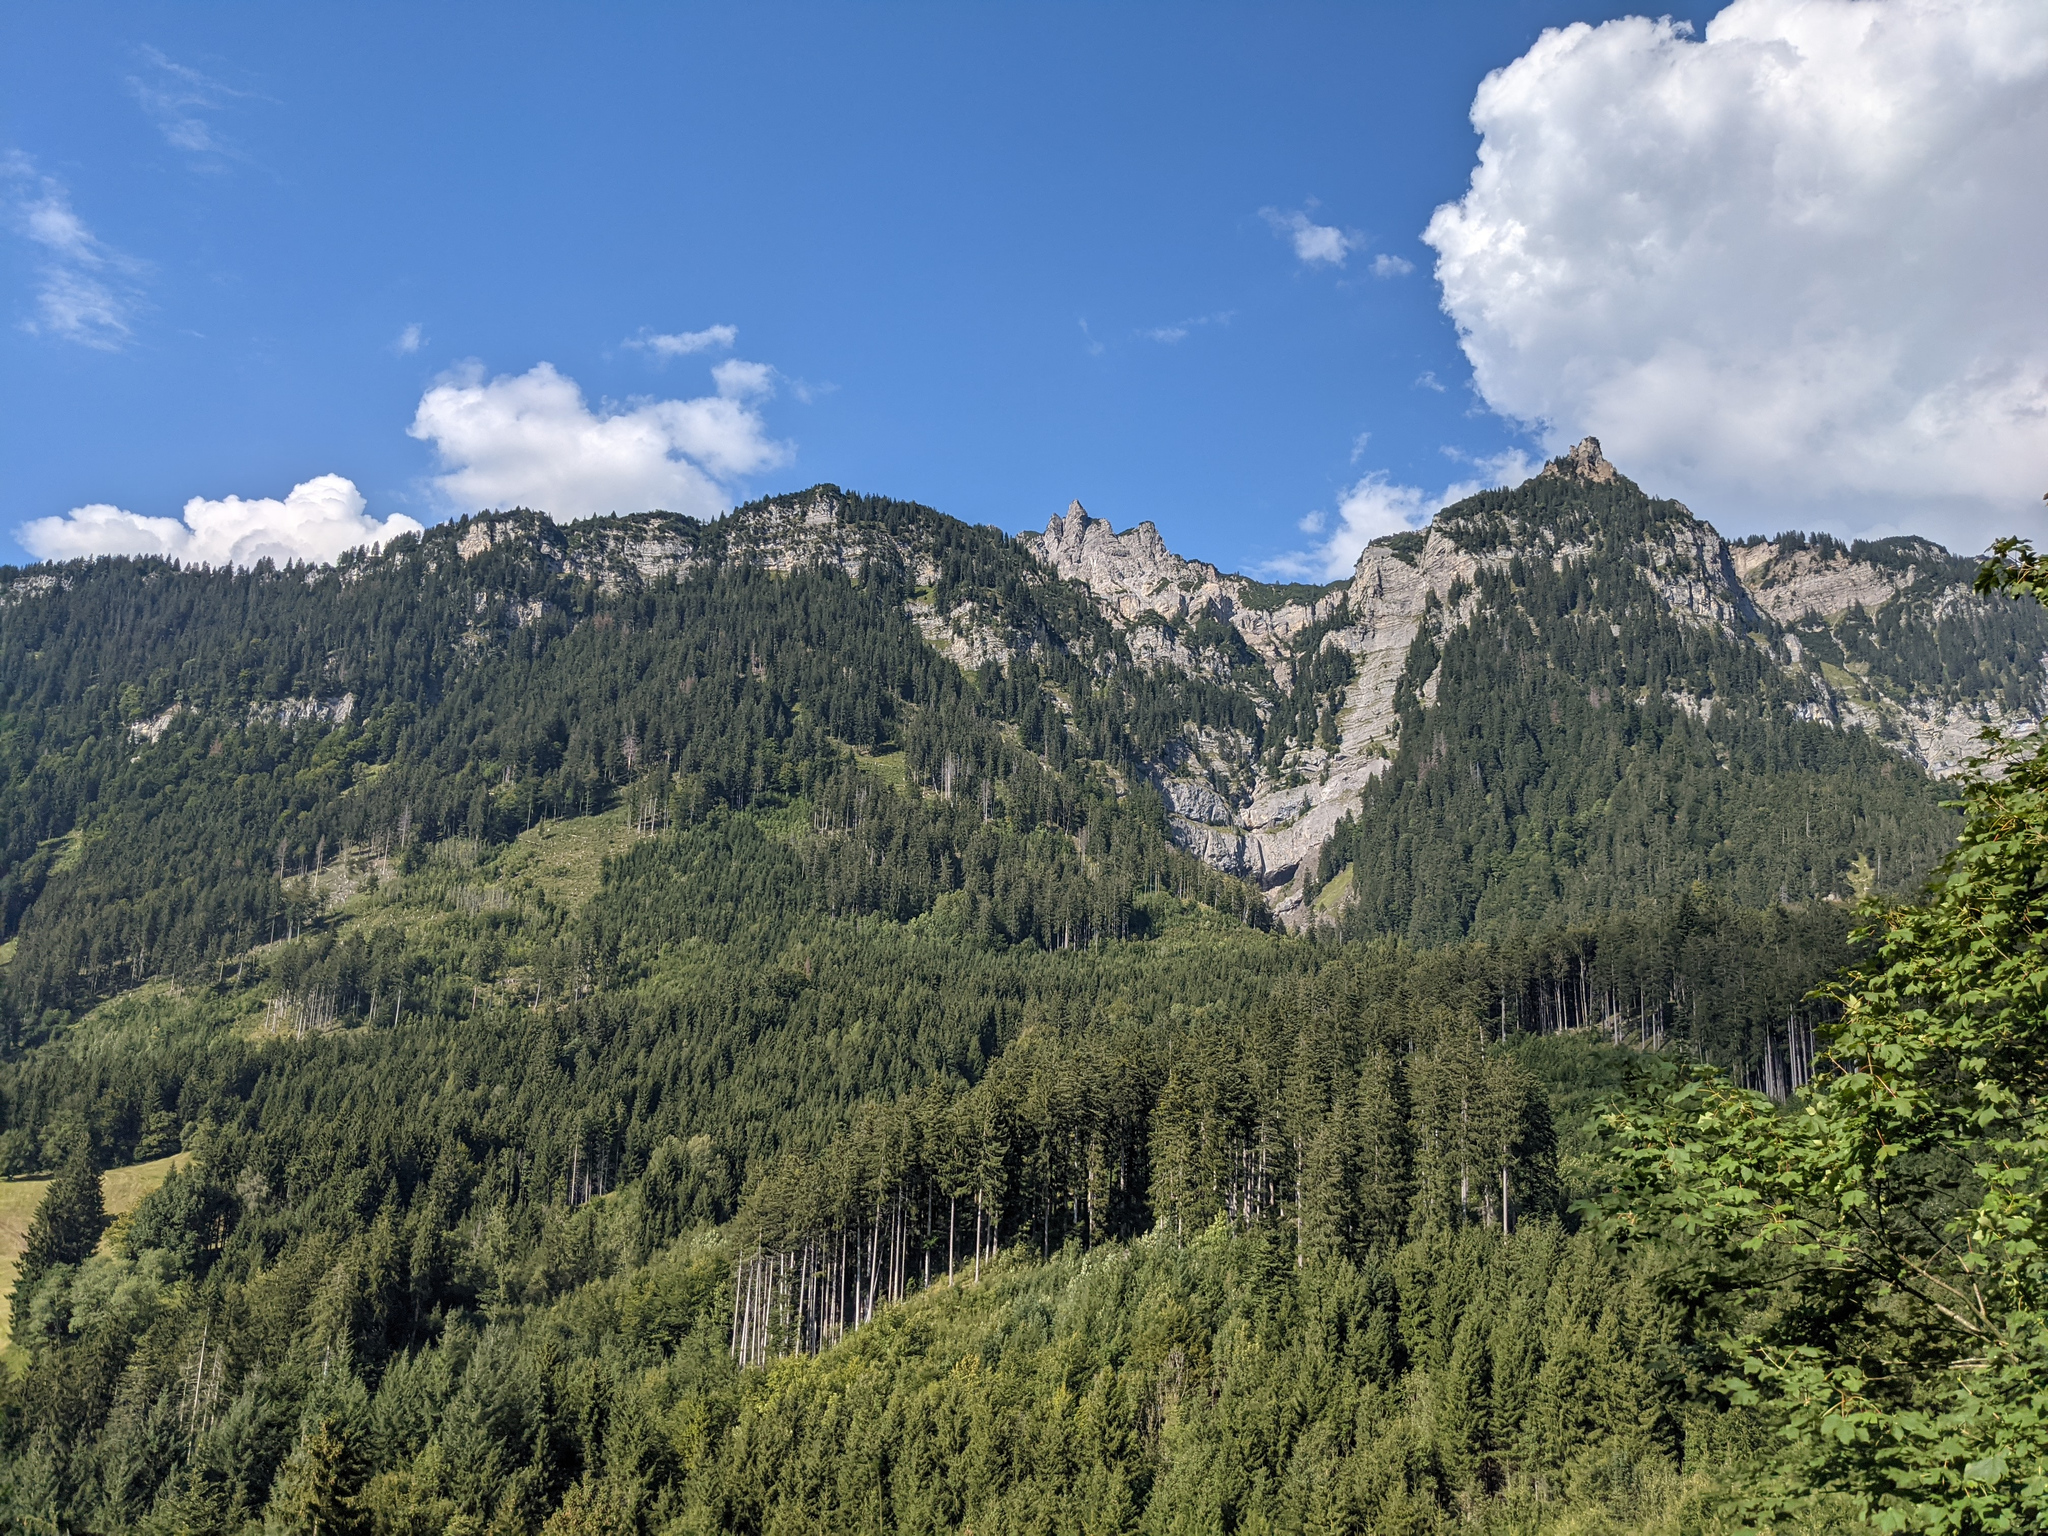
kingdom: Plantae
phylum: Tracheophyta
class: Pinopsida
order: Pinales
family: Pinaceae
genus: Picea
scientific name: Picea abies
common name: Norway spruce
